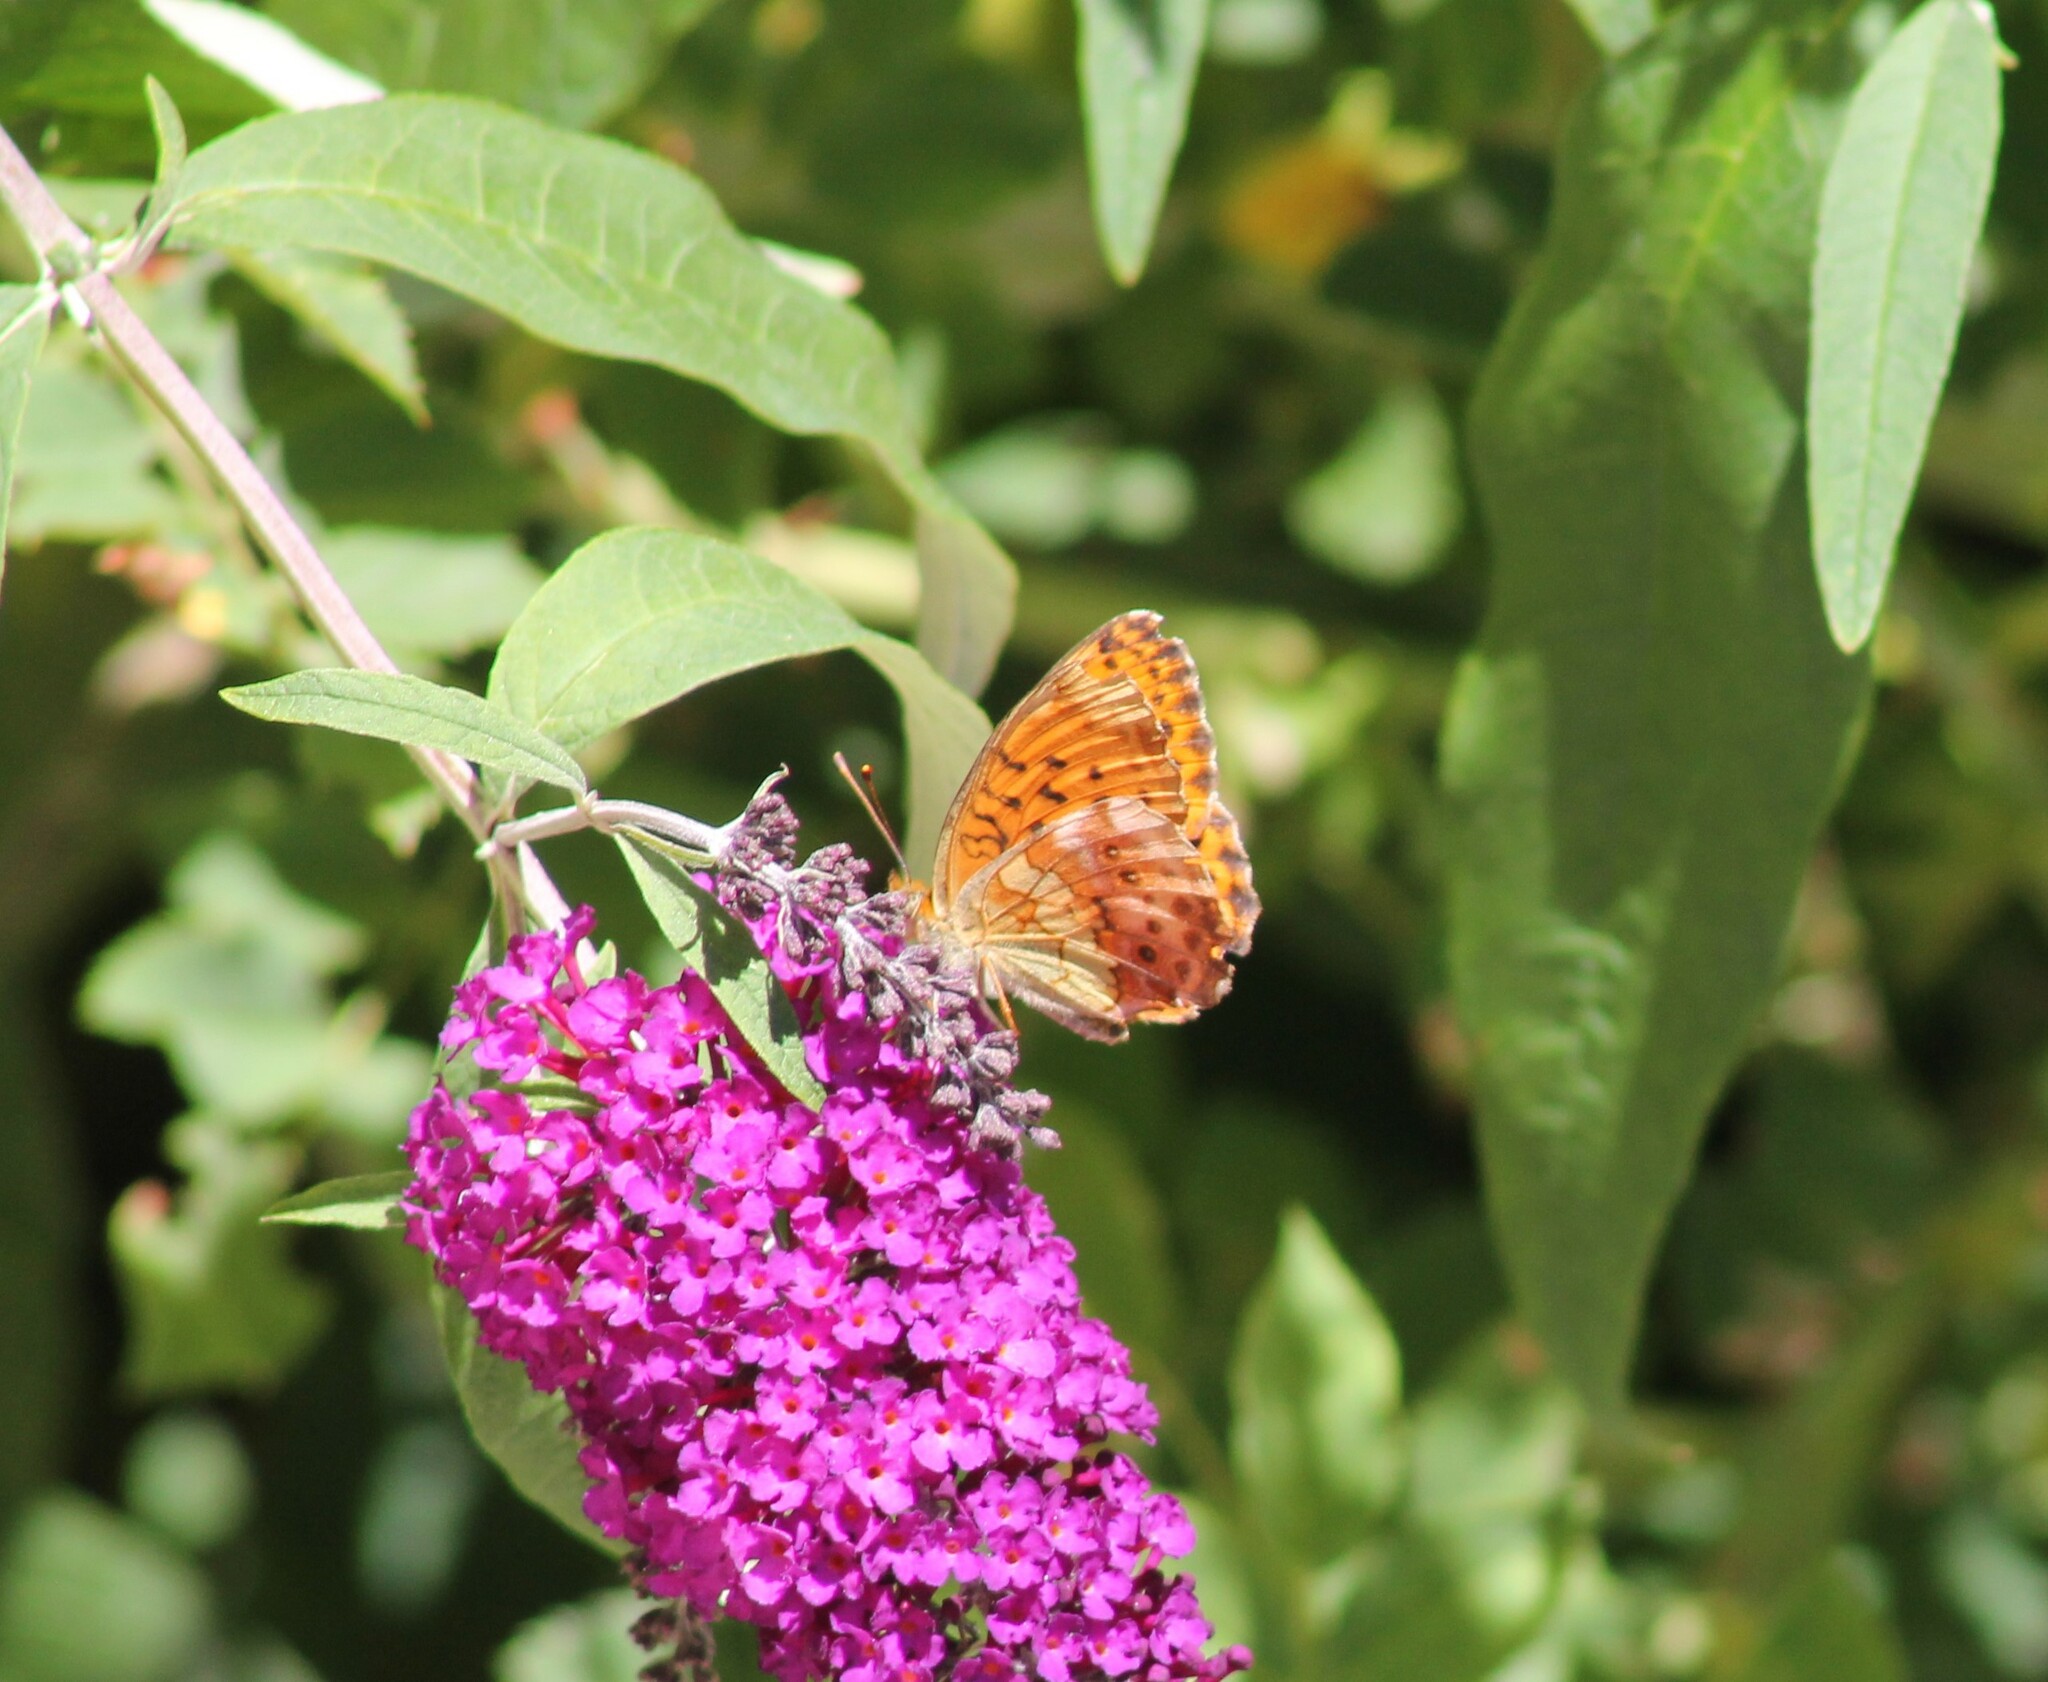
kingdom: Animalia
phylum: Arthropoda
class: Insecta
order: Lepidoptera
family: Nymphalidae
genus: Brenthis
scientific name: Brenthis daphne
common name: Marbled fritillary
